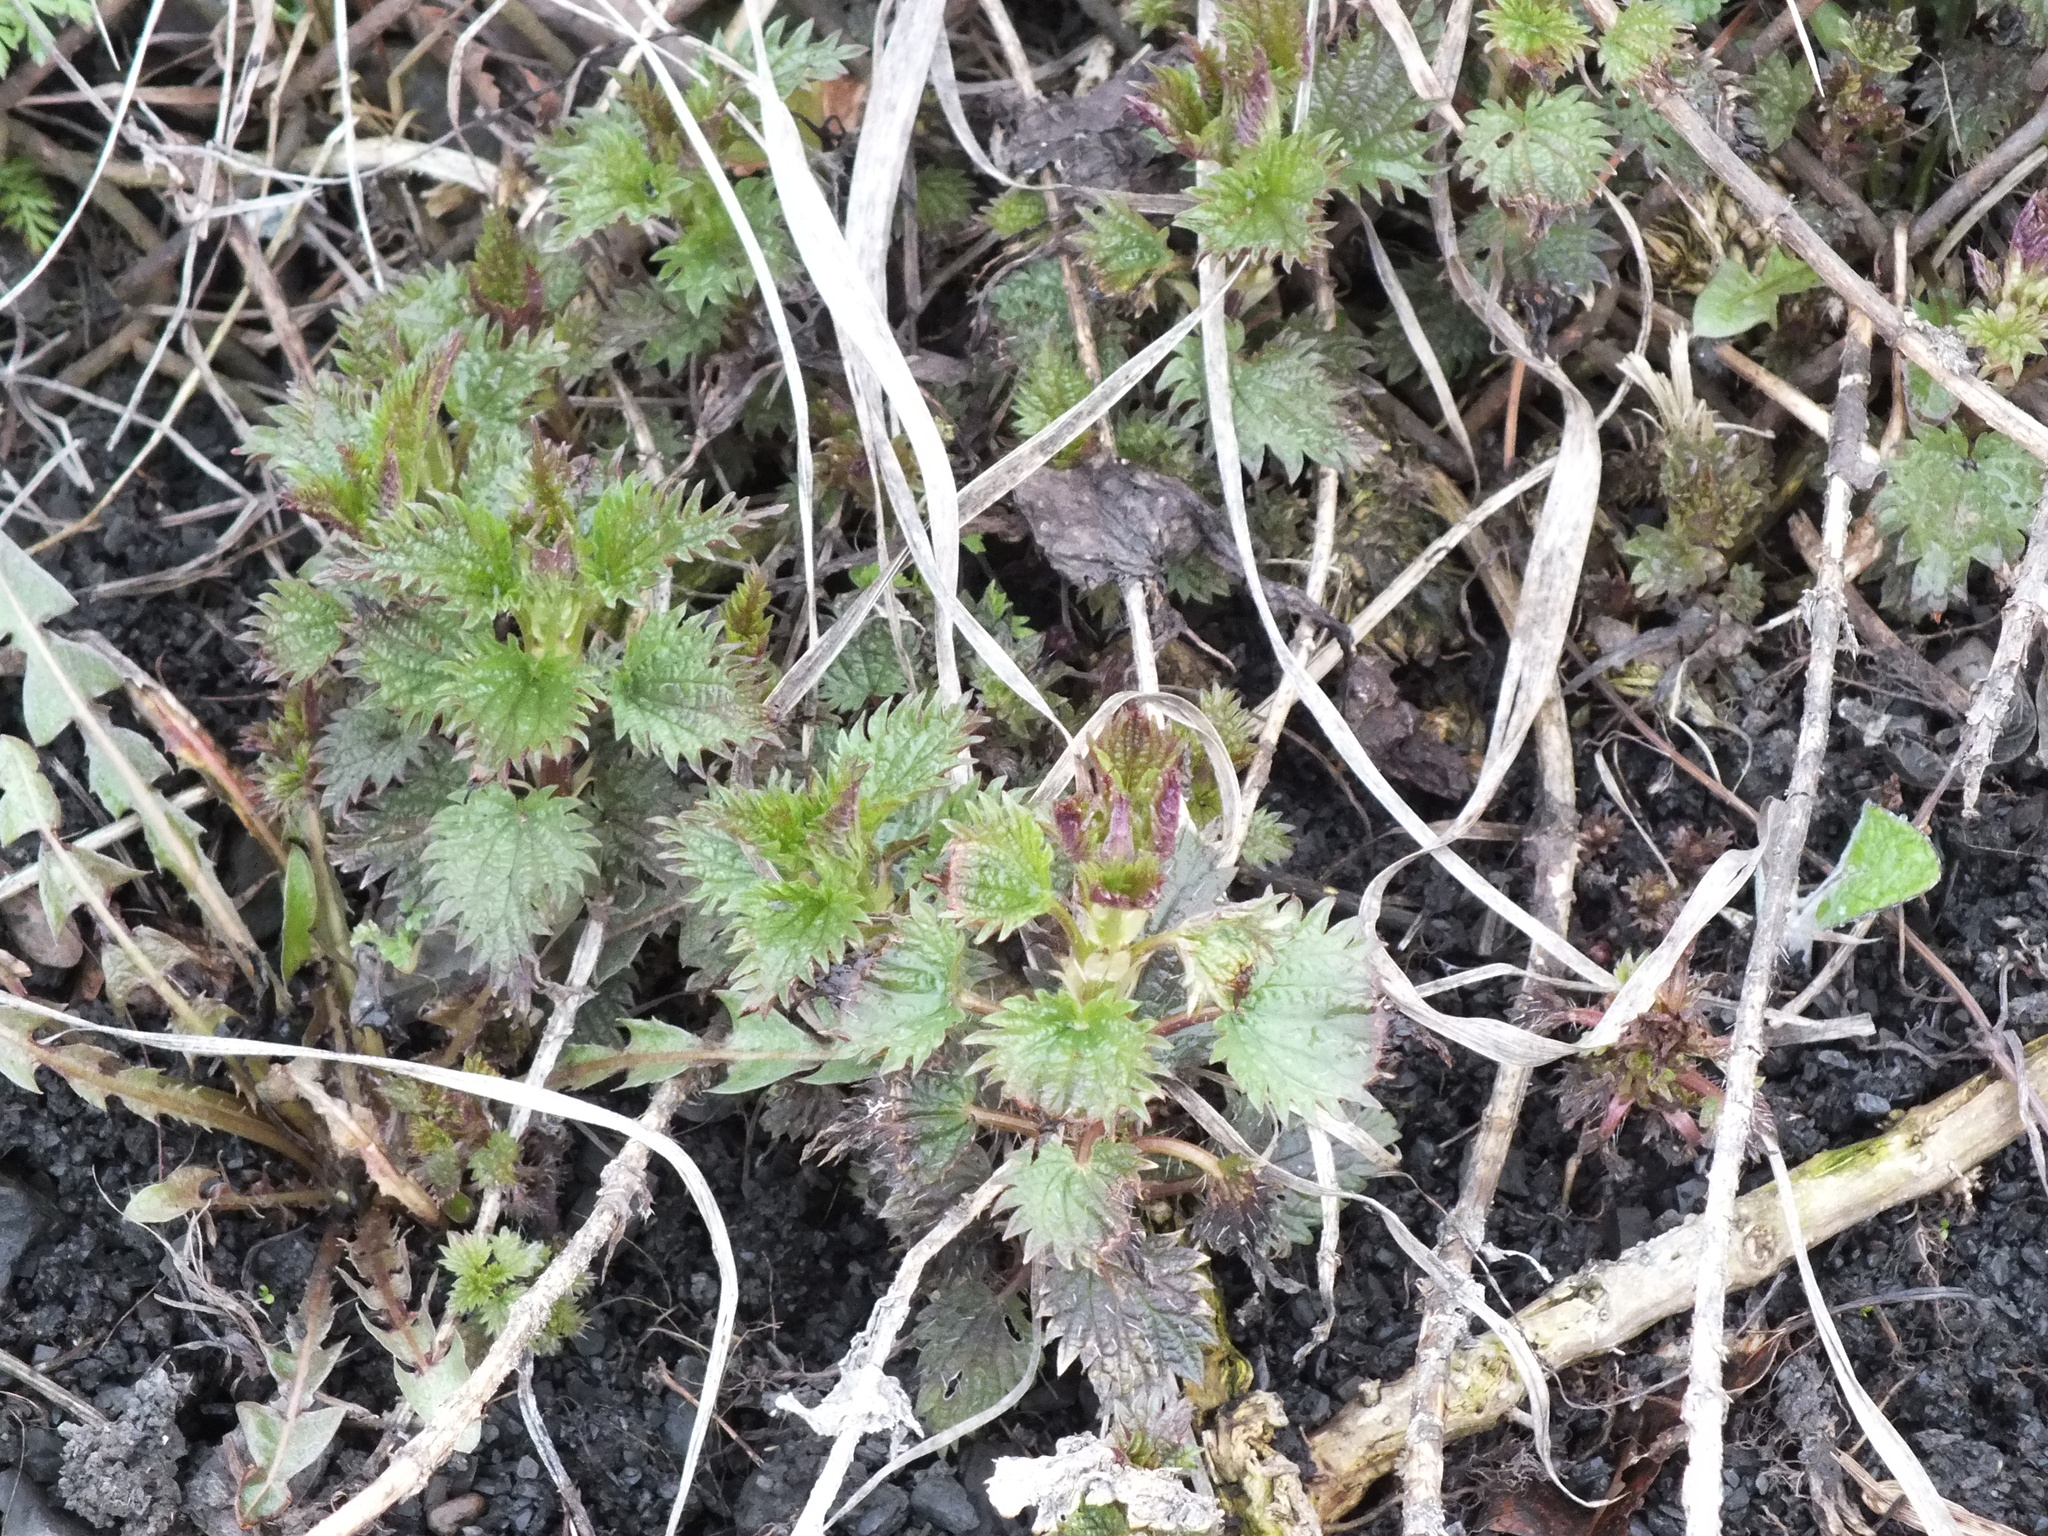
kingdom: Plantae
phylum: Tracheophyta
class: Magnoliopsida
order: Rosales
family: Urticaceae
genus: Urtica
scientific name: Urtica dioica
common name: Common nettle
